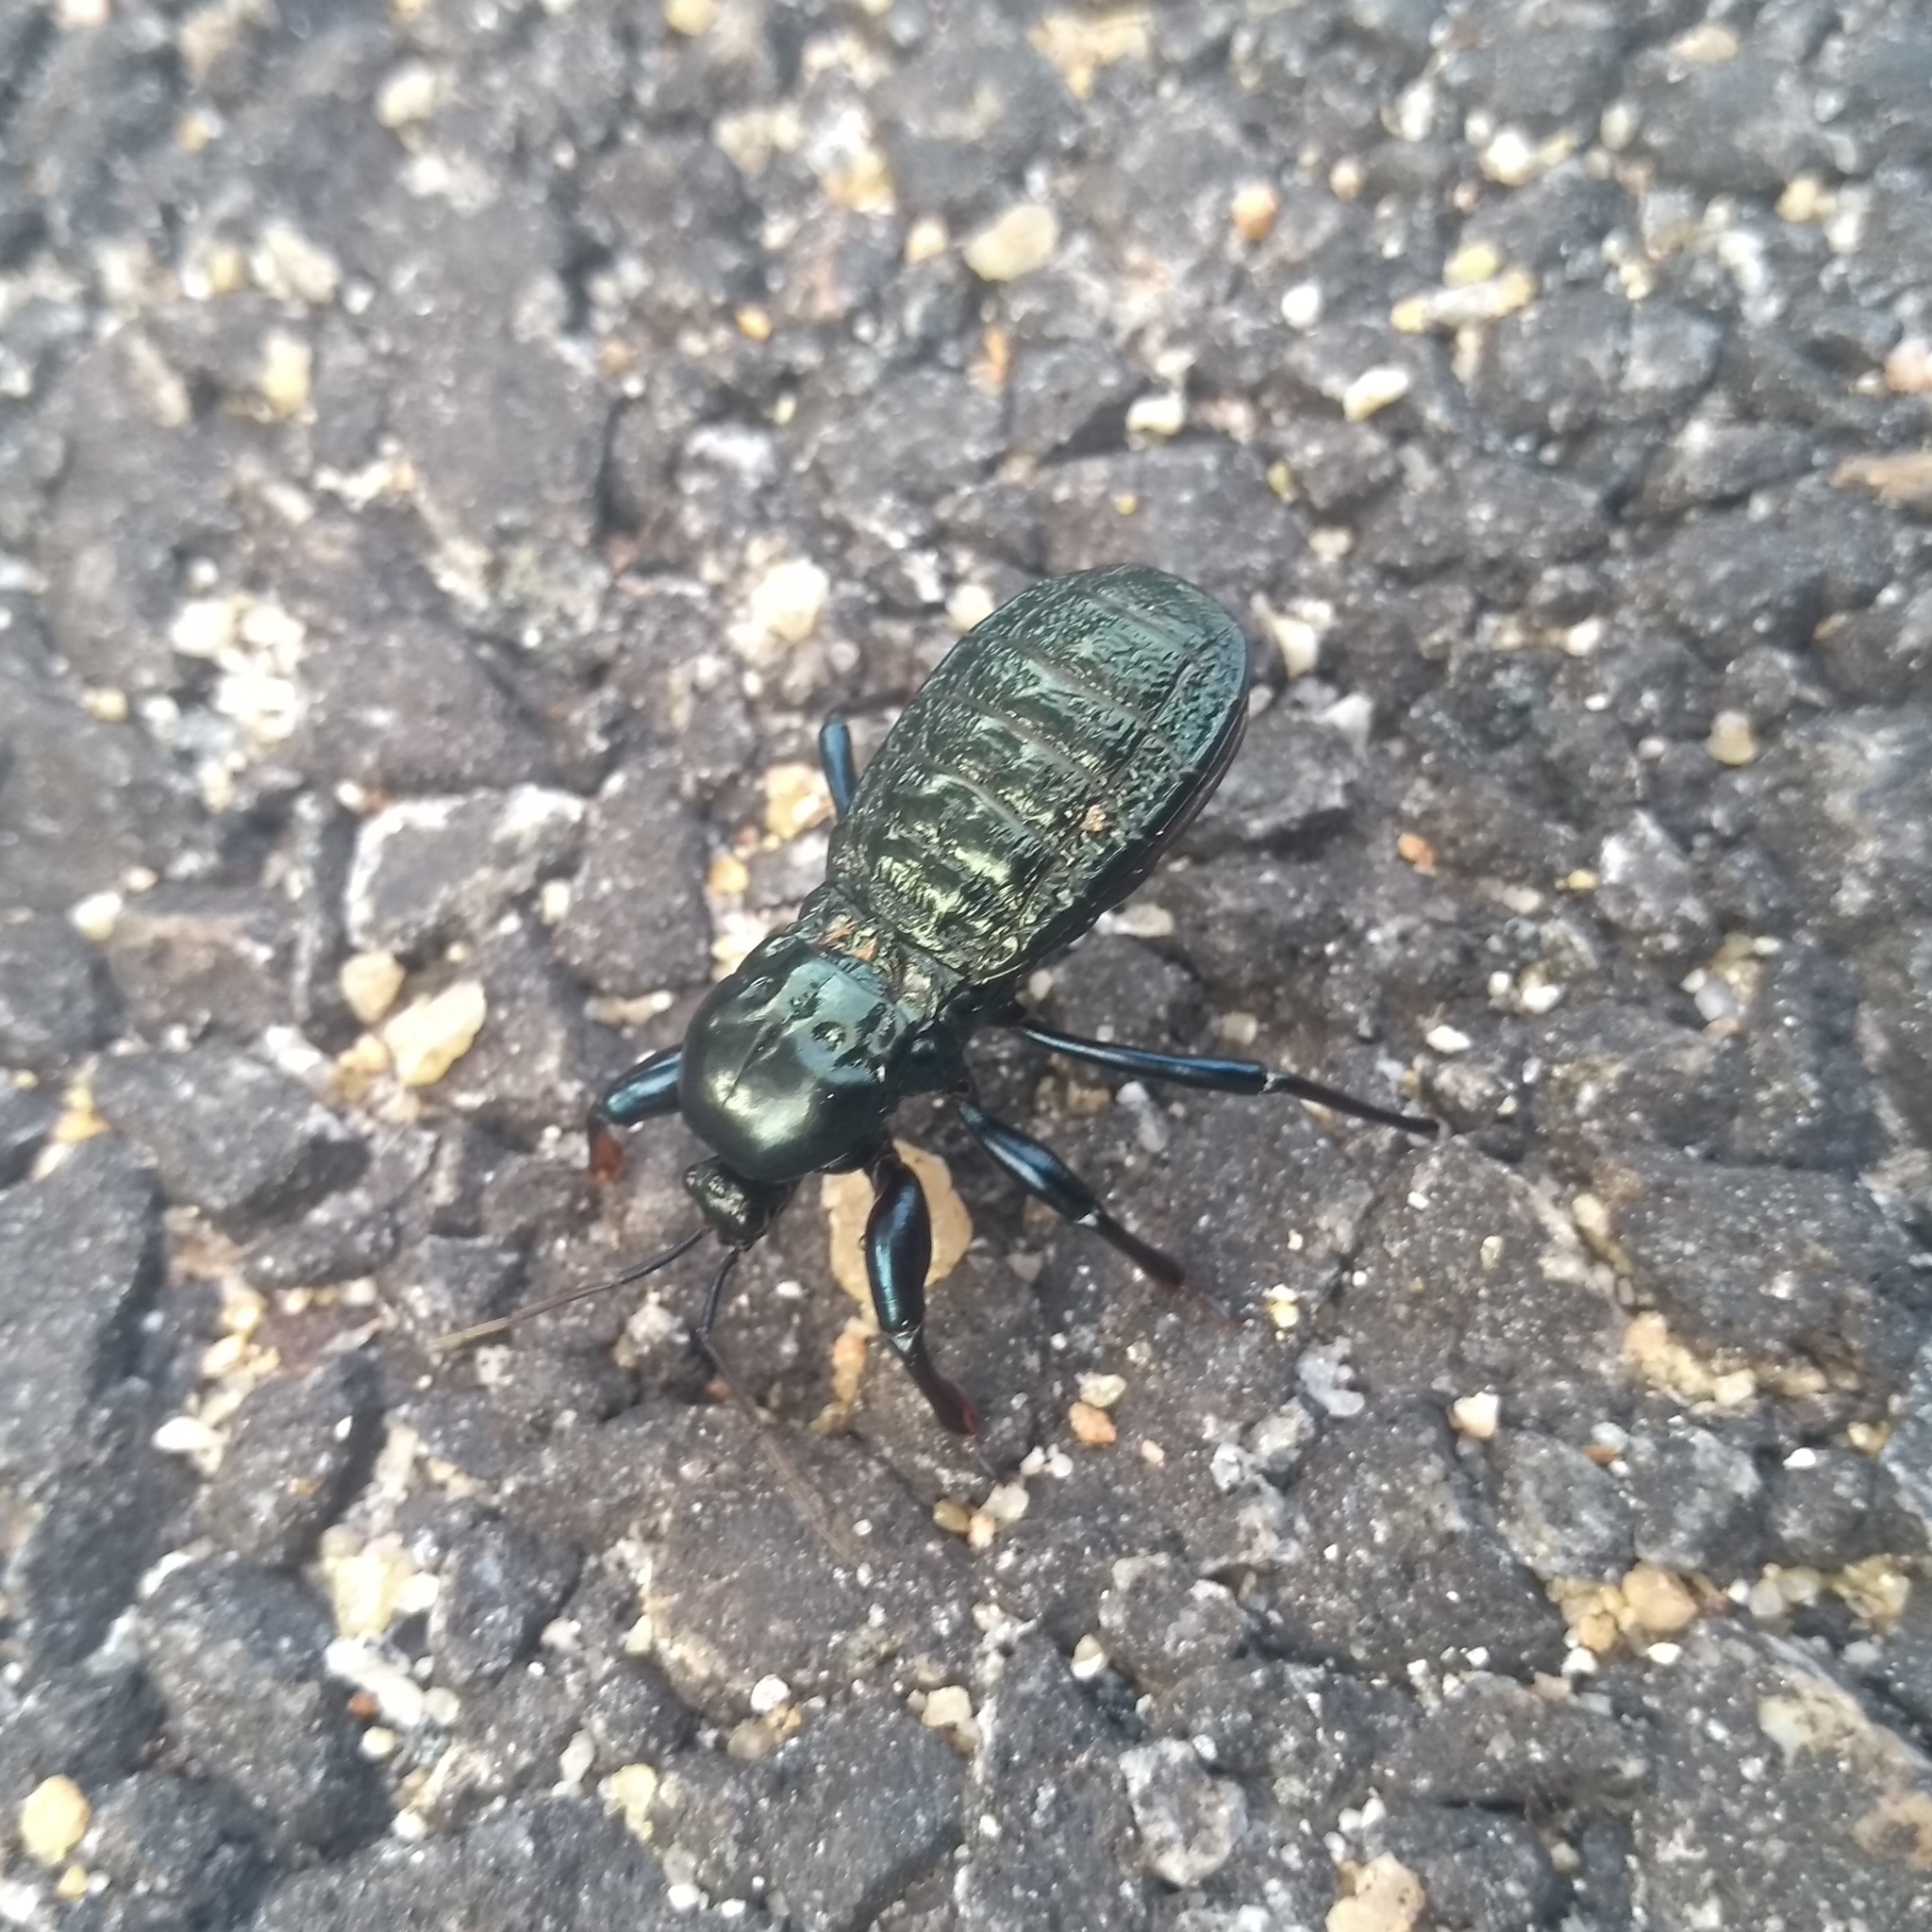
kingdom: Animalia
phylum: Arthropoda
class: Insecta
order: Hemiptera
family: Reduviidae
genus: Haematorrhophus
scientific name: Haematorrhophus nigroviolaceus
